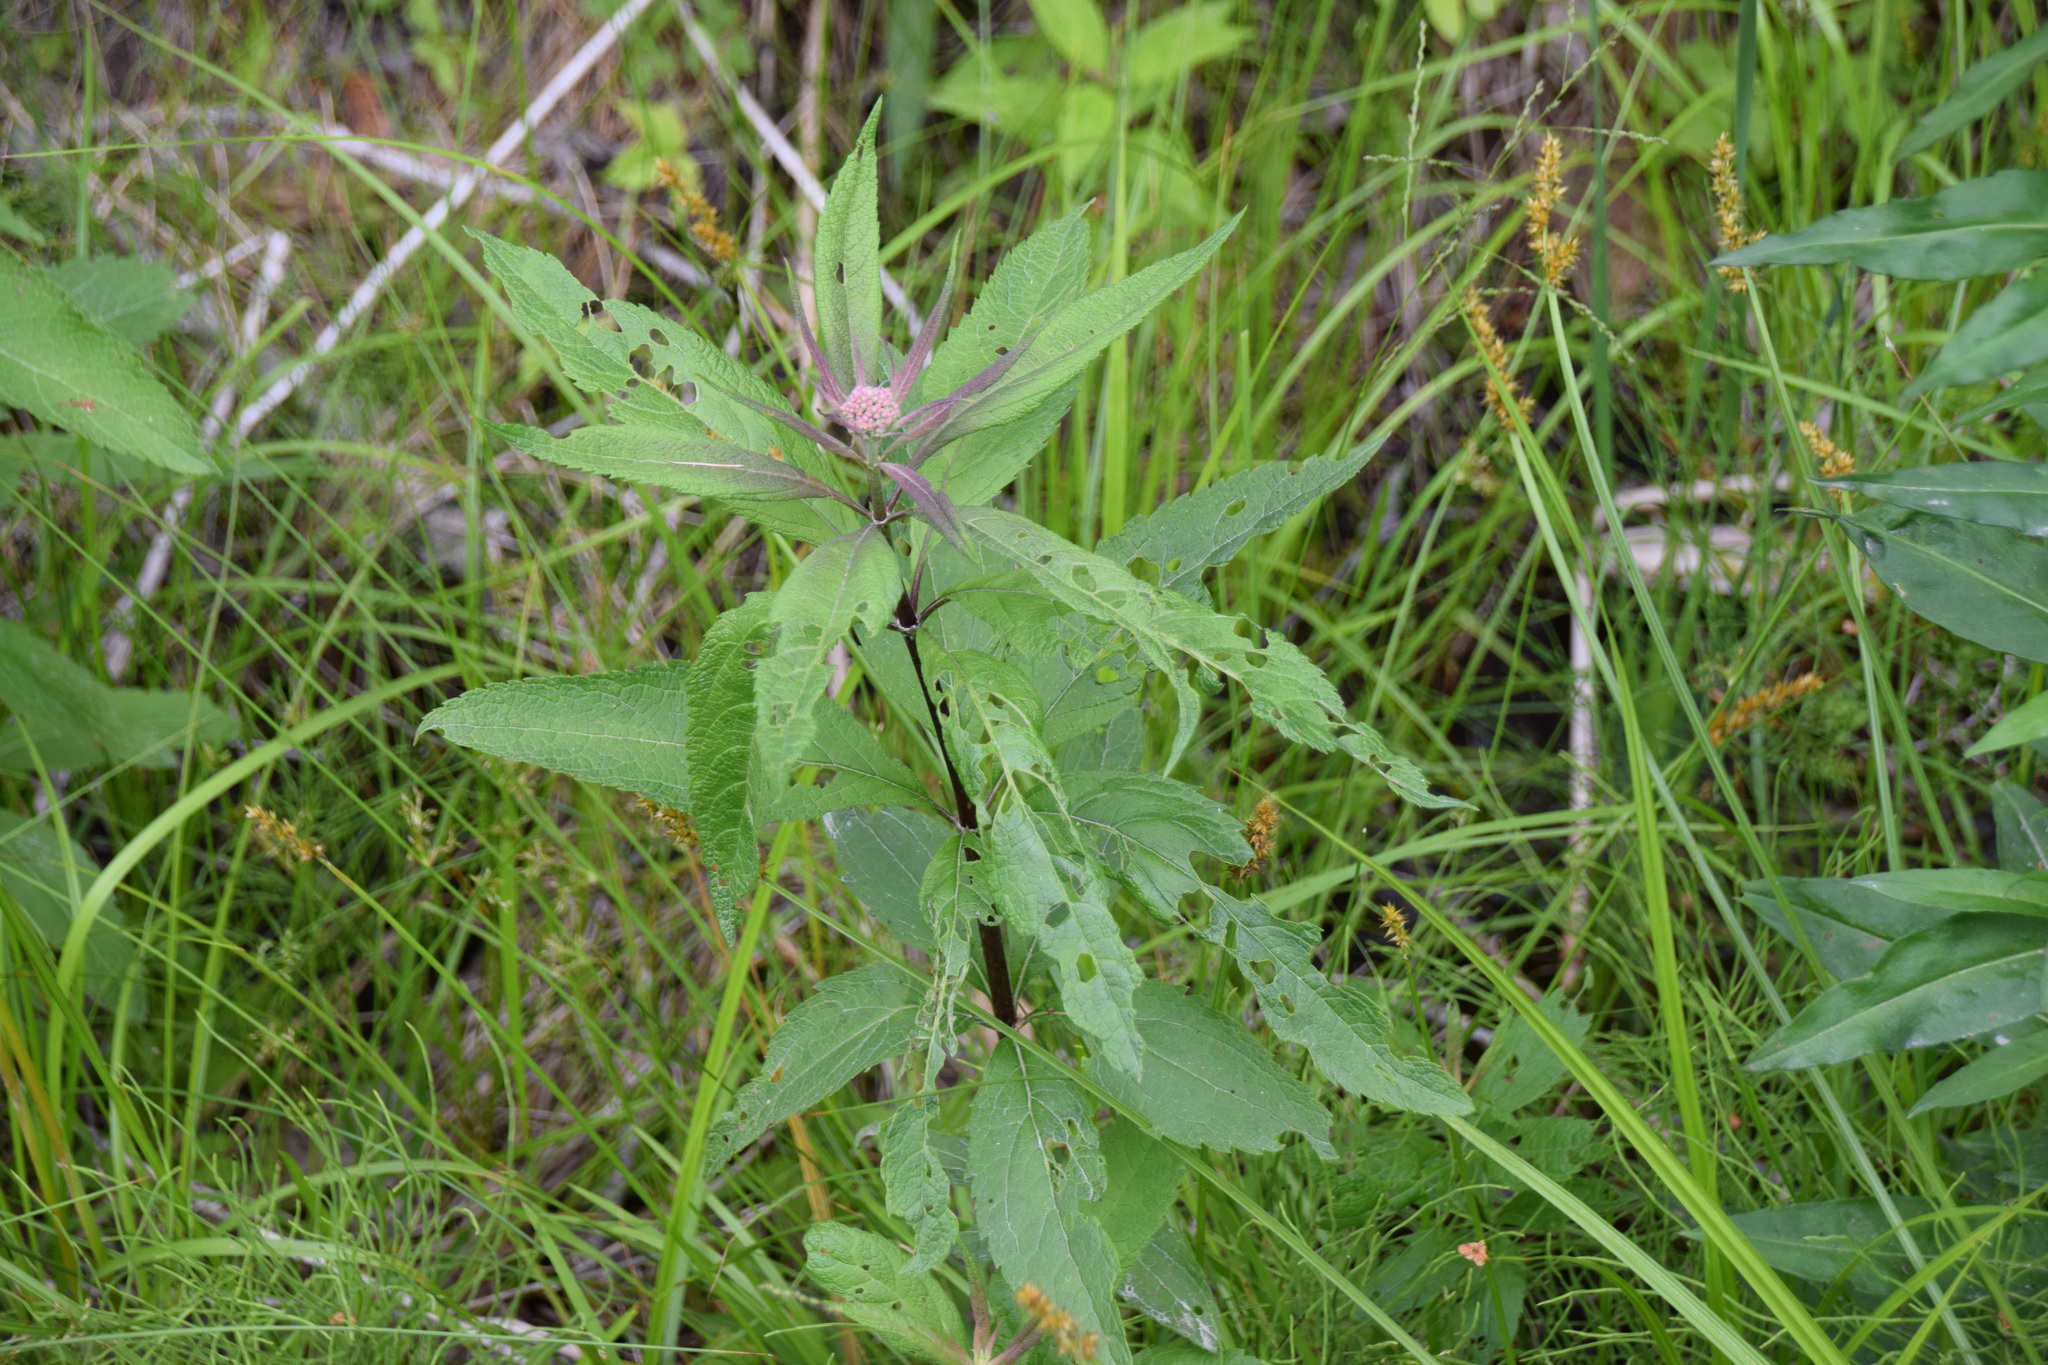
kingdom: Plantae
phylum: Tracheophyta
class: Magnoliopsida
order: Asterales
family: Asteraceae
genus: Eutrochium
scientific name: Eutrochium maculatum
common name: Spotted joe pye weed
